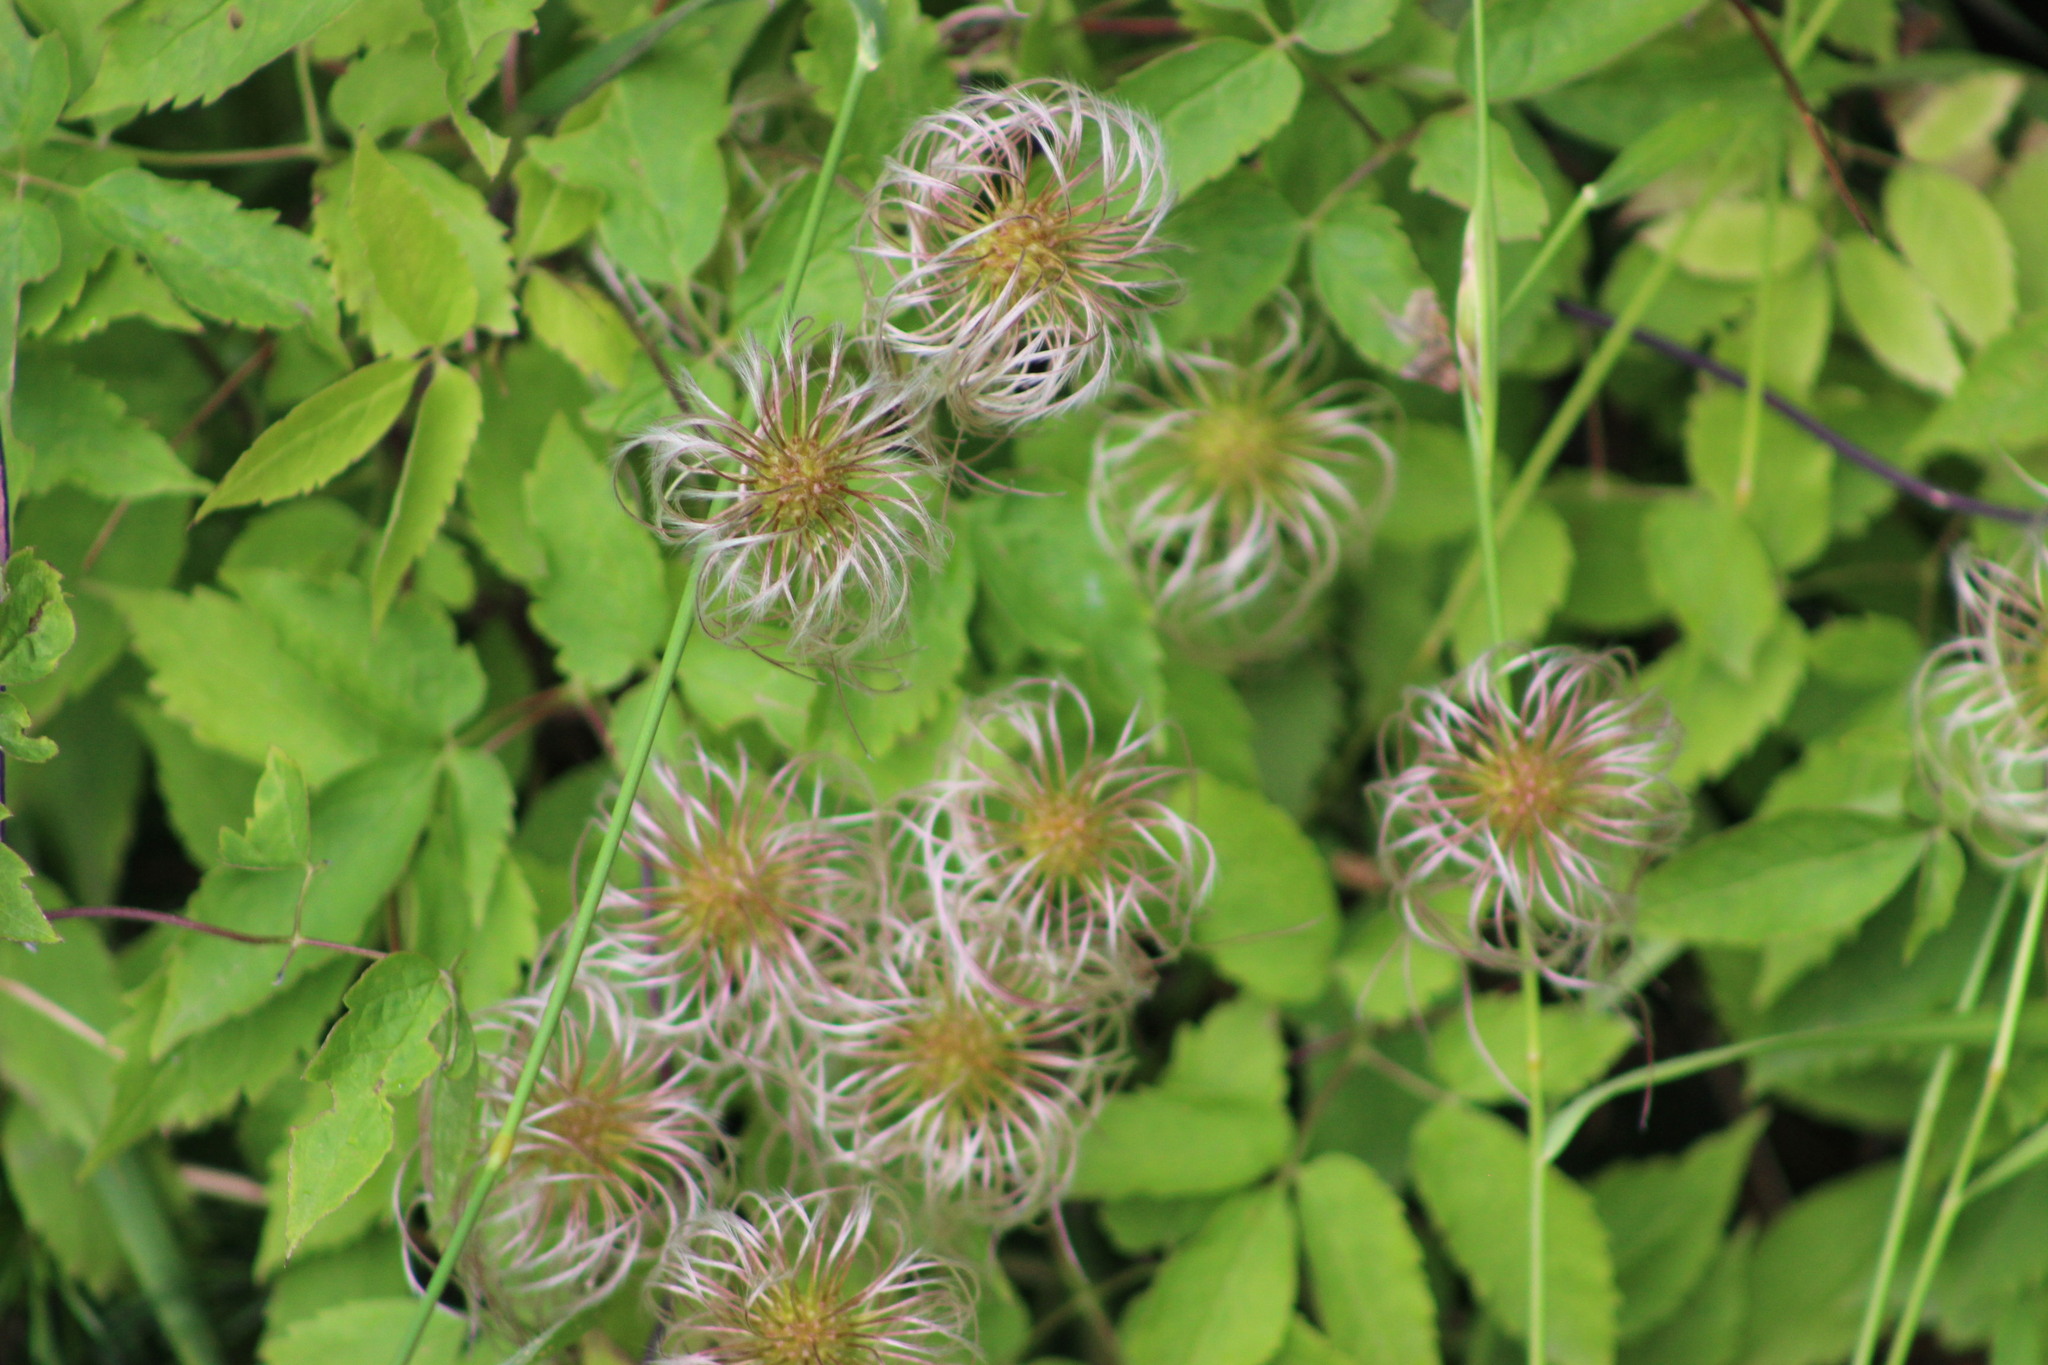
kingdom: Plantae
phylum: Tracheophyta
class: Magnoliopsida
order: Ranunculales
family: Ranunculaceae
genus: Clematis
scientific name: Clematis sibirica
